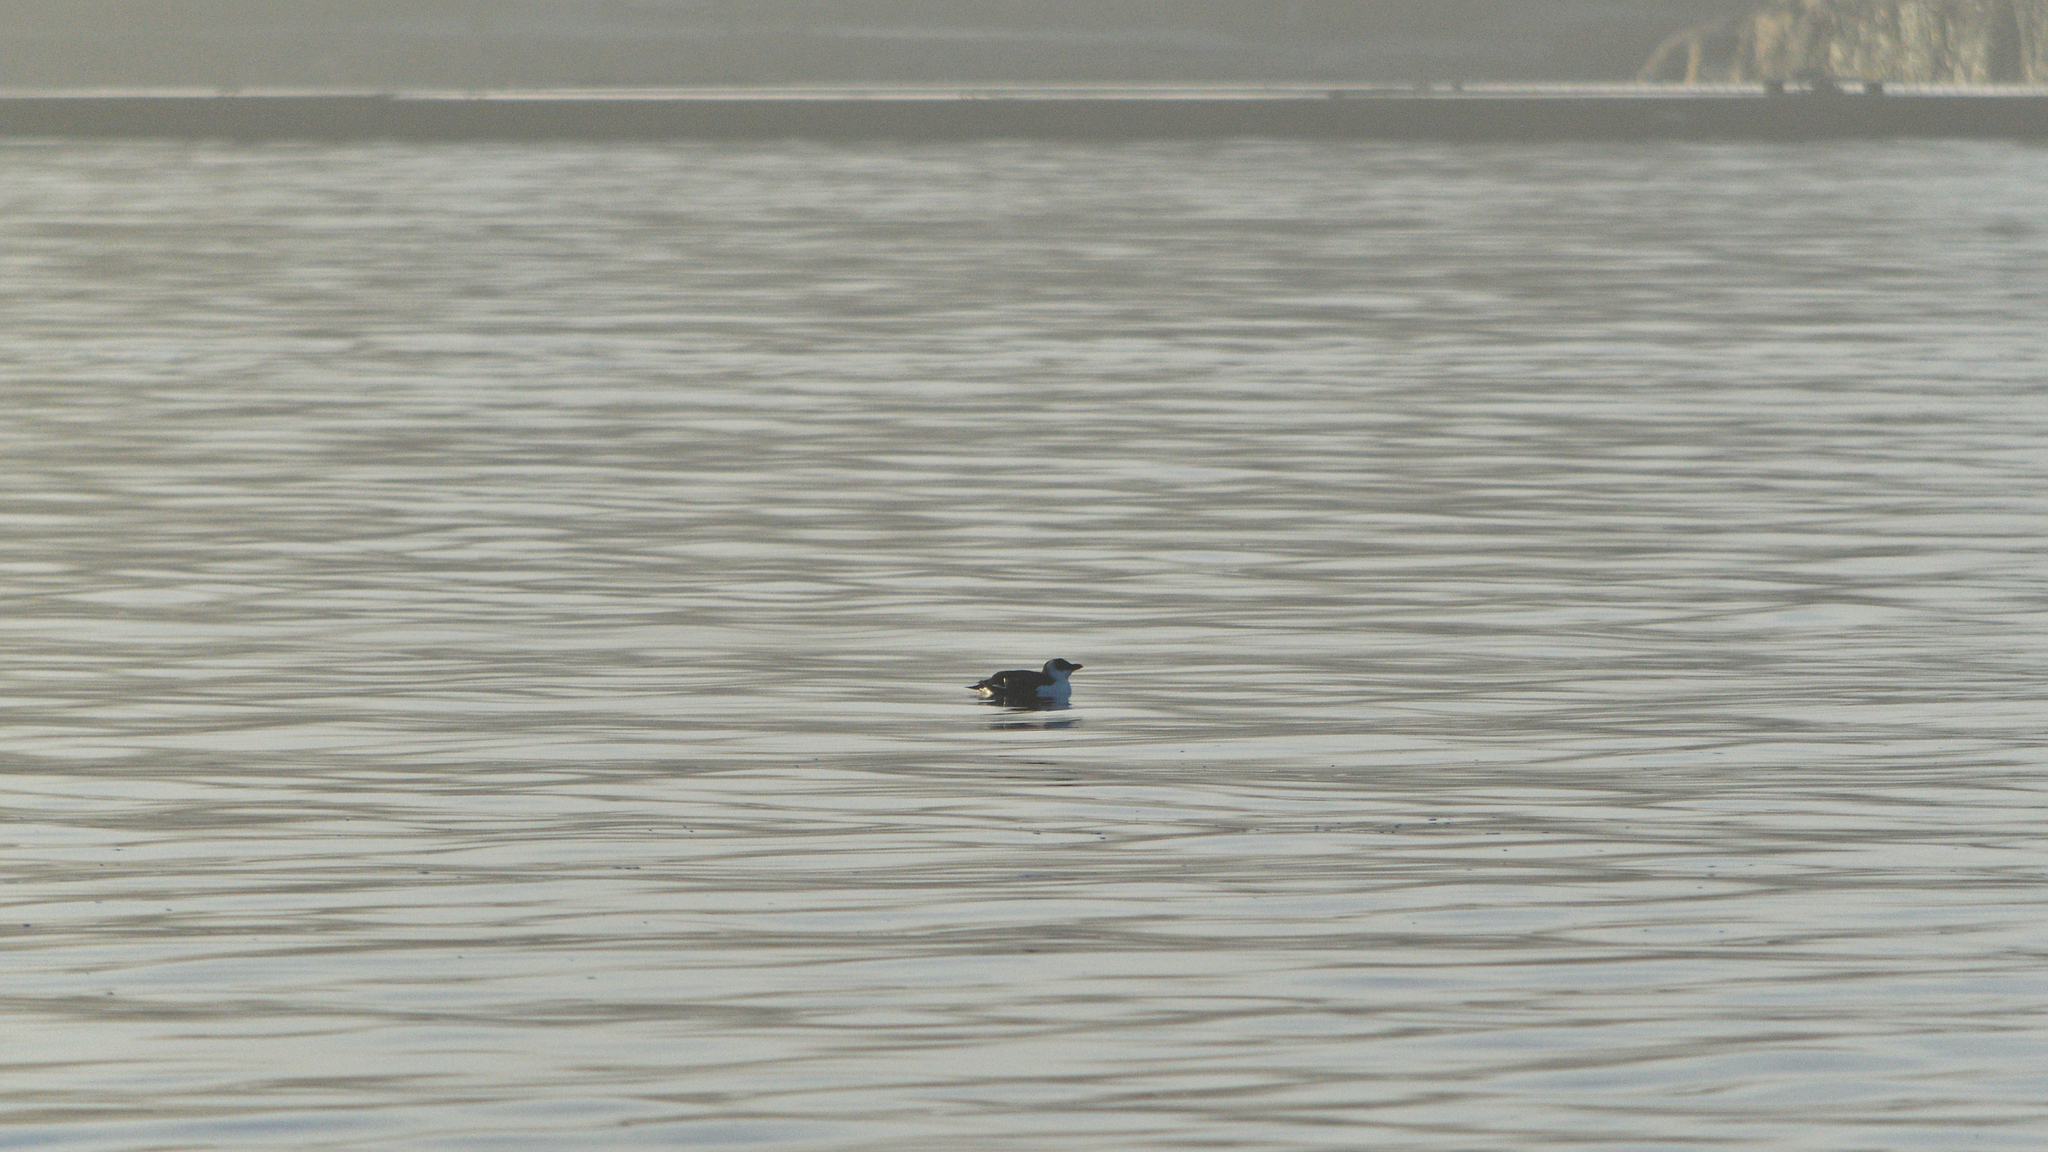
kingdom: Animalia
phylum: Chordata
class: Aves
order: Charadriiformes
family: Alcidae
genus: Alca
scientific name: Alca torda
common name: Razorbill
